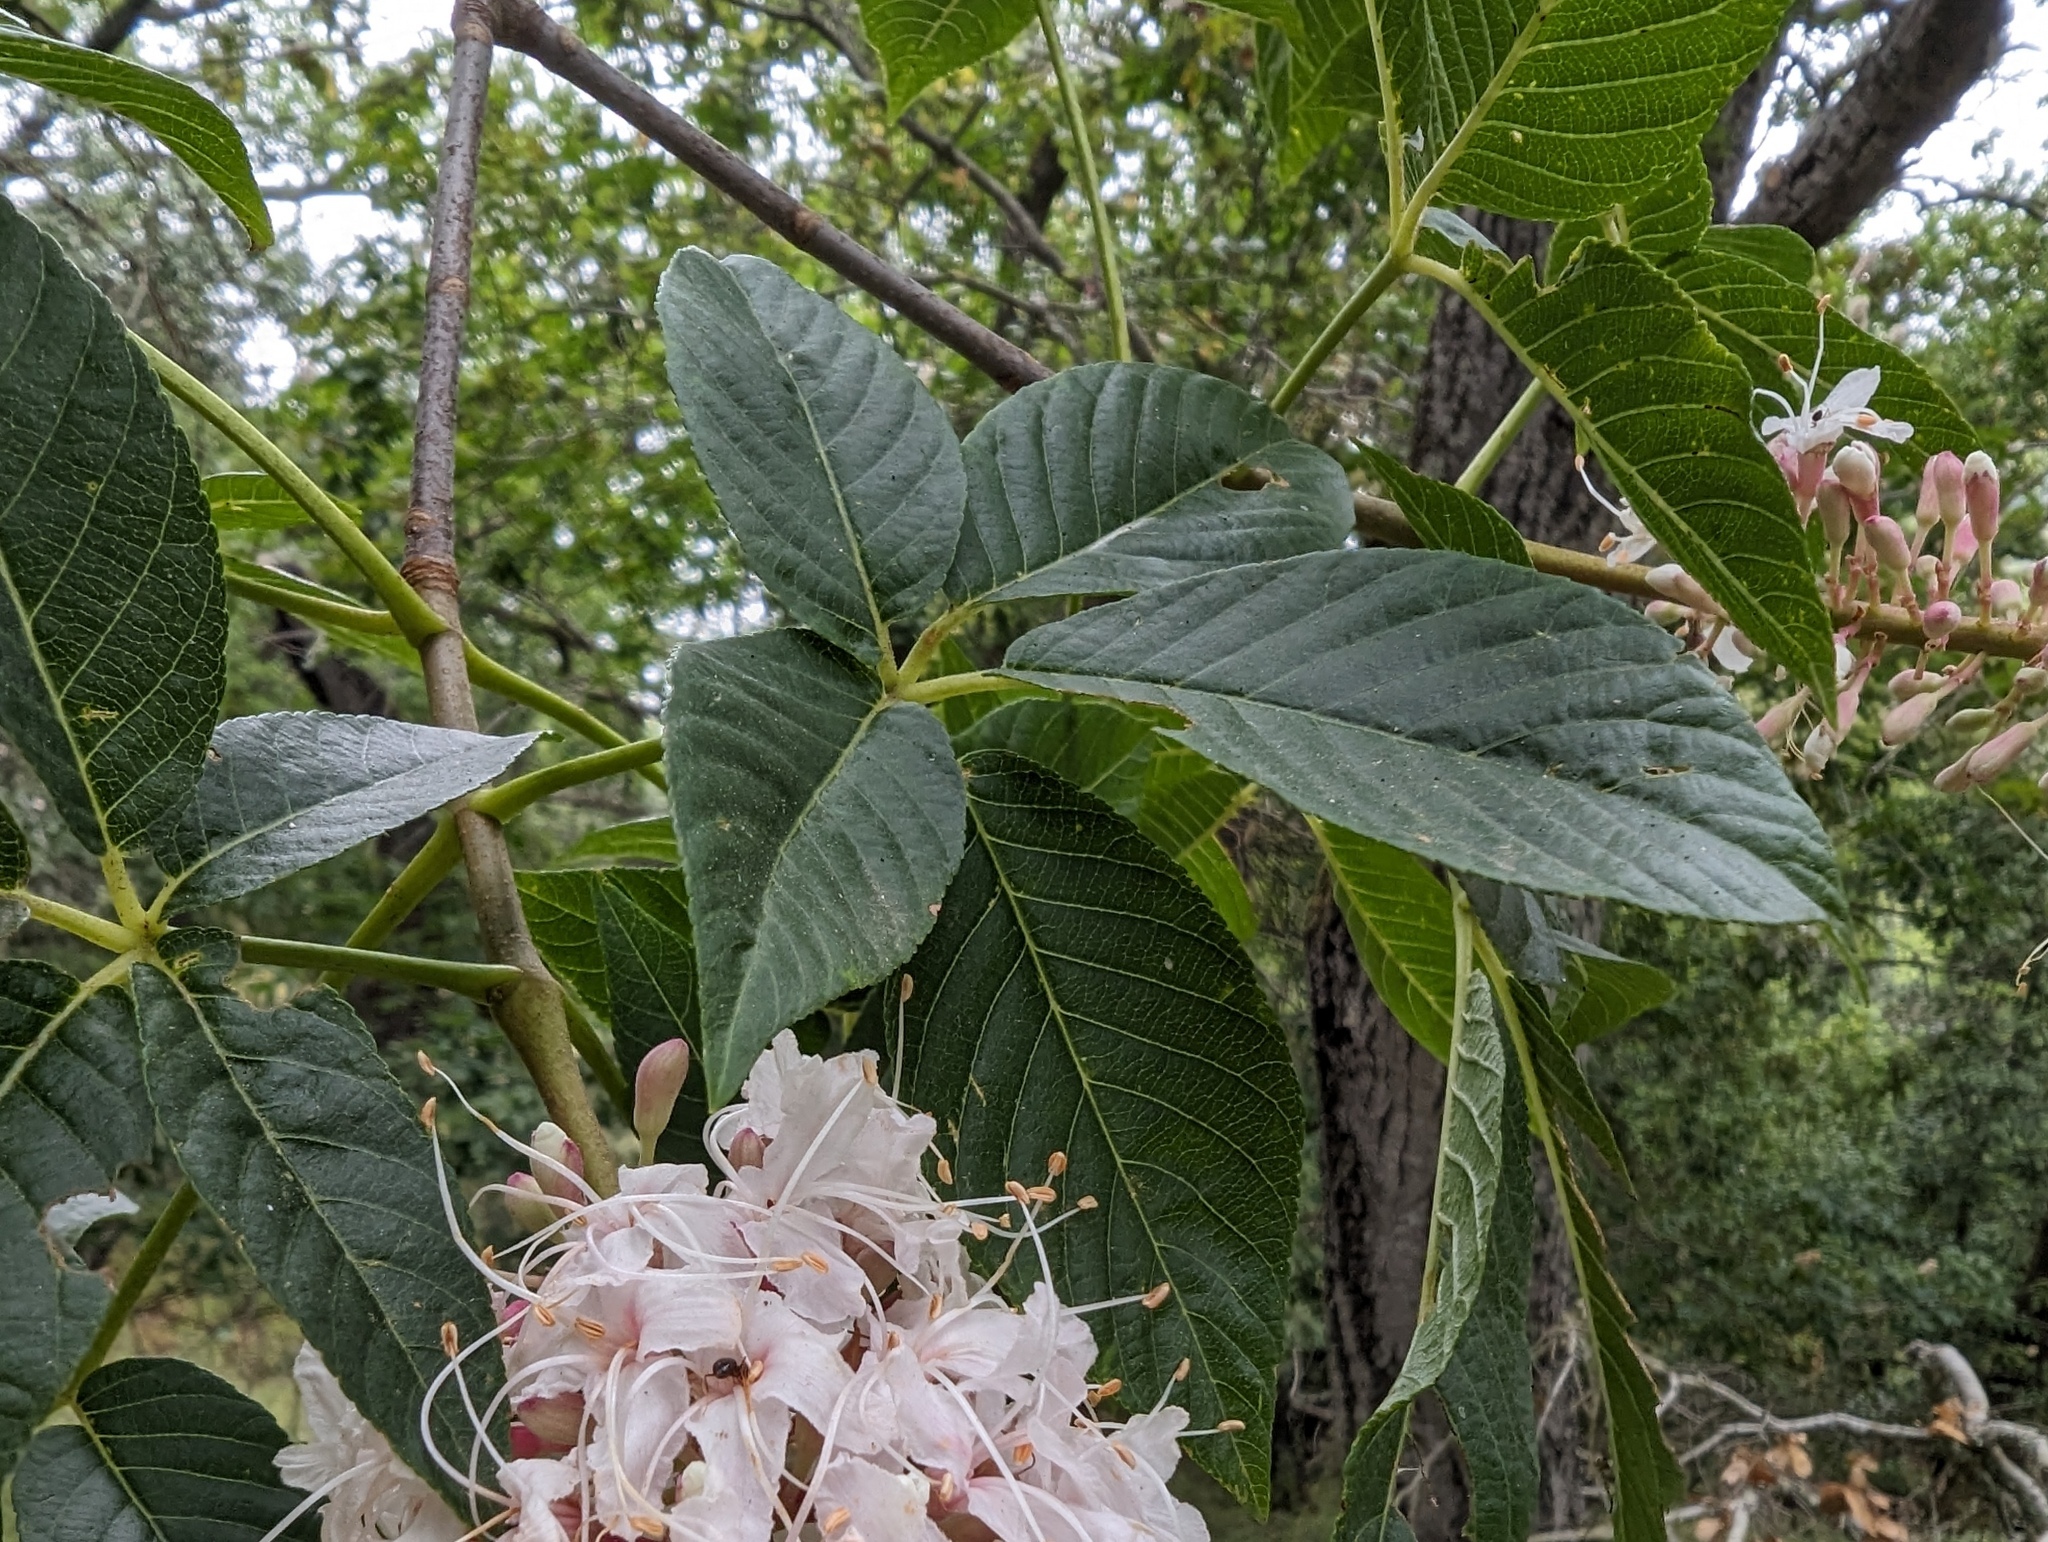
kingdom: Plantae
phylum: Tracheophyta
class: Magnoliopsida
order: Sapindales
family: Sapindaceae
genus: Aesculus
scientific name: Aesculus californica
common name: California buckeye
